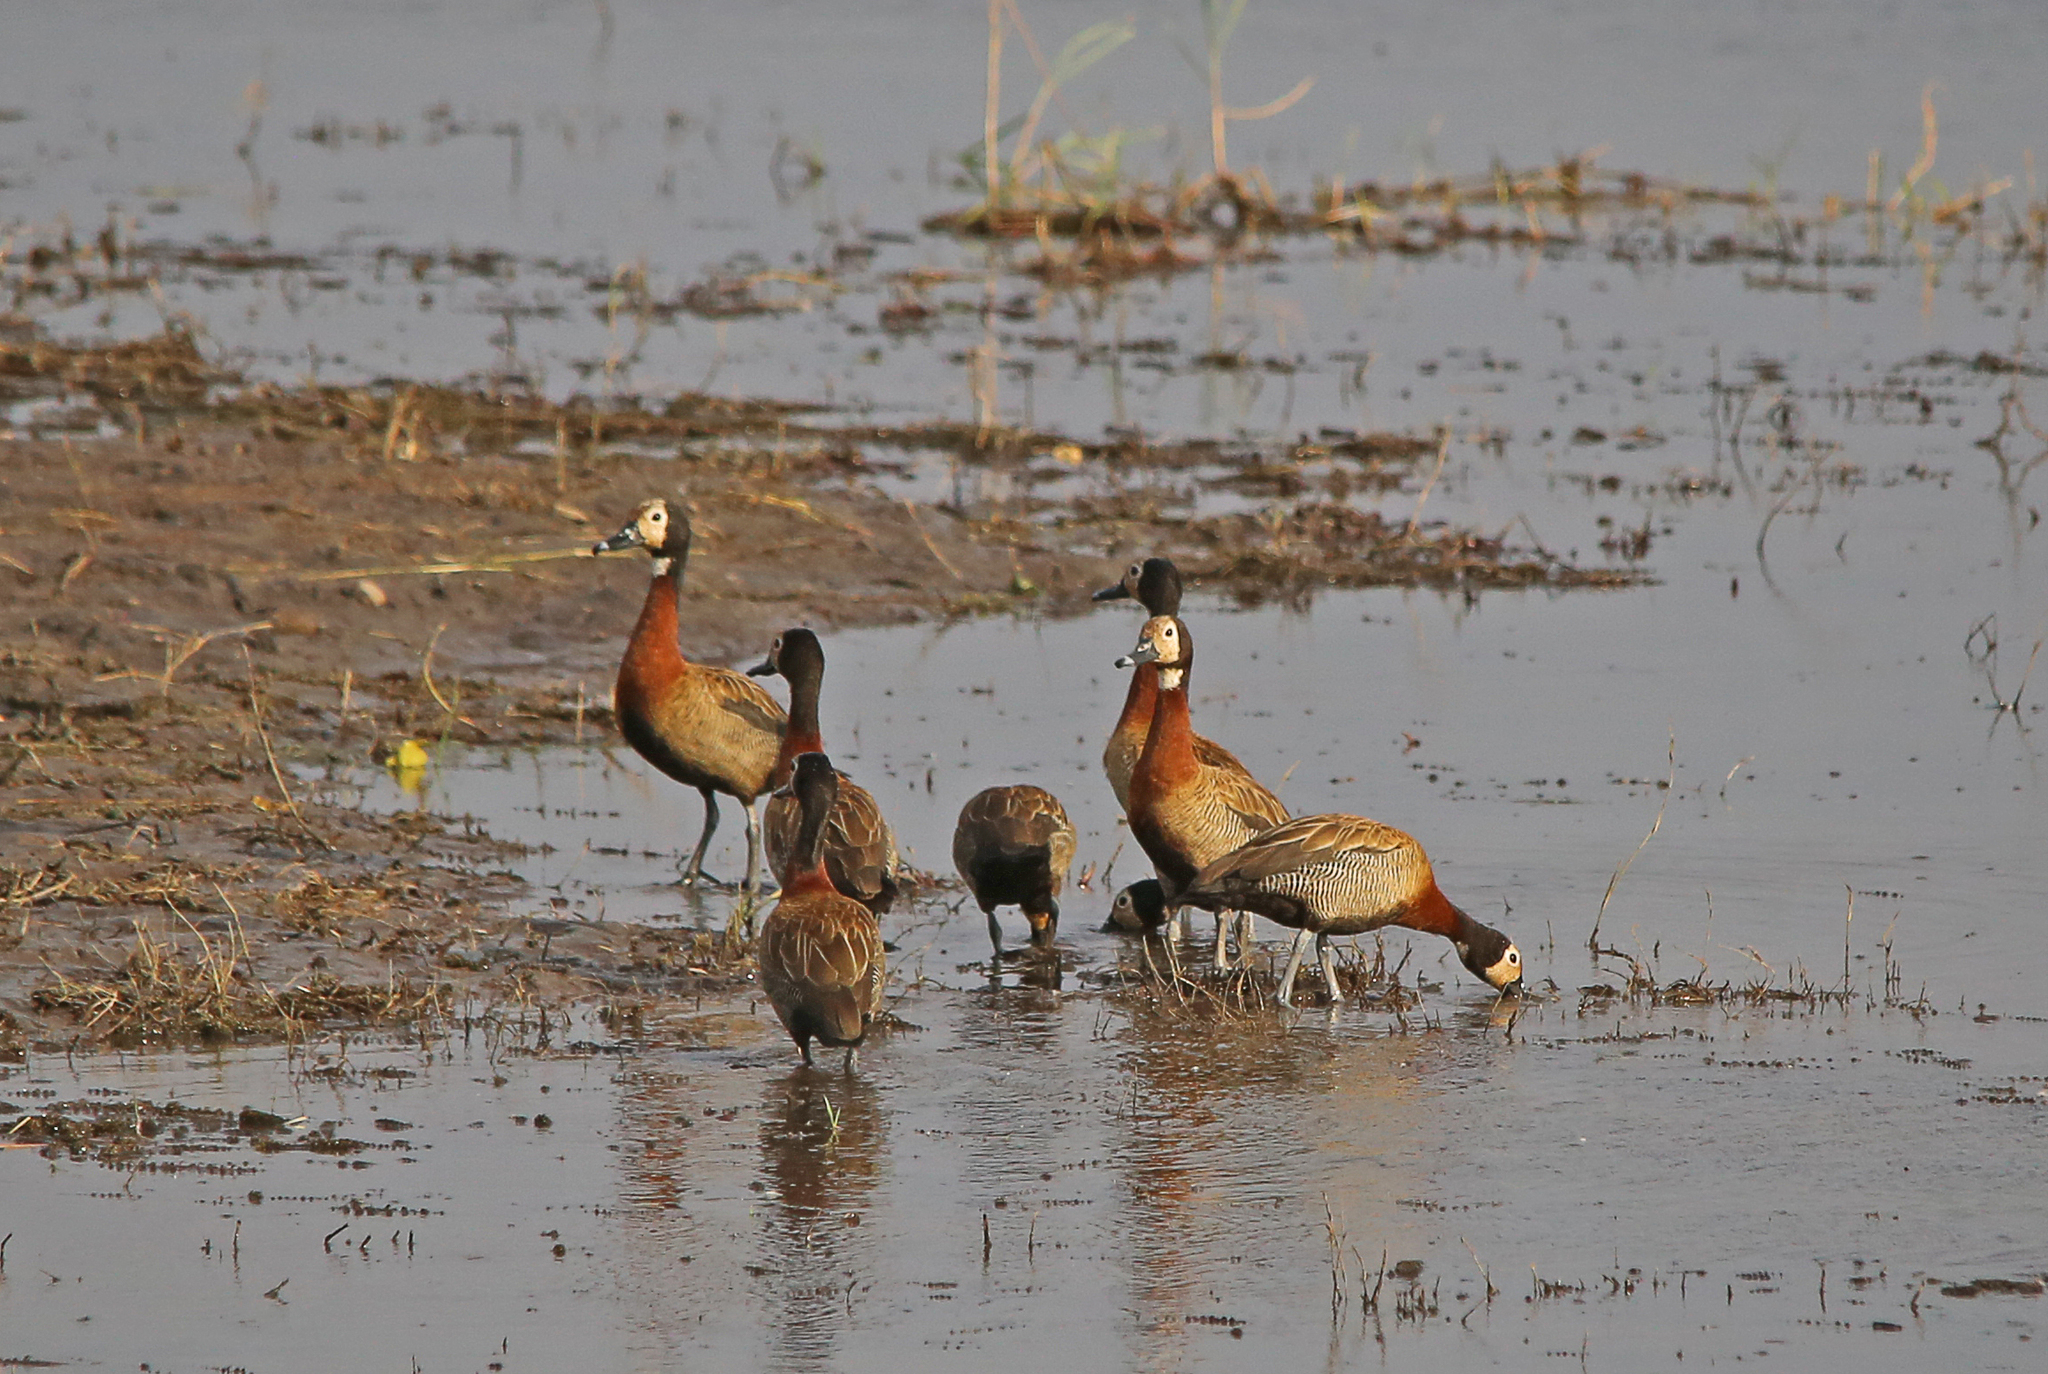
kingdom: Animalia
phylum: Chordata
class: Aves
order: Anseriformes
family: Anatidae
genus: Dendrocygna
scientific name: Dendrocygna viduata
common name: White-faced whistling duck
